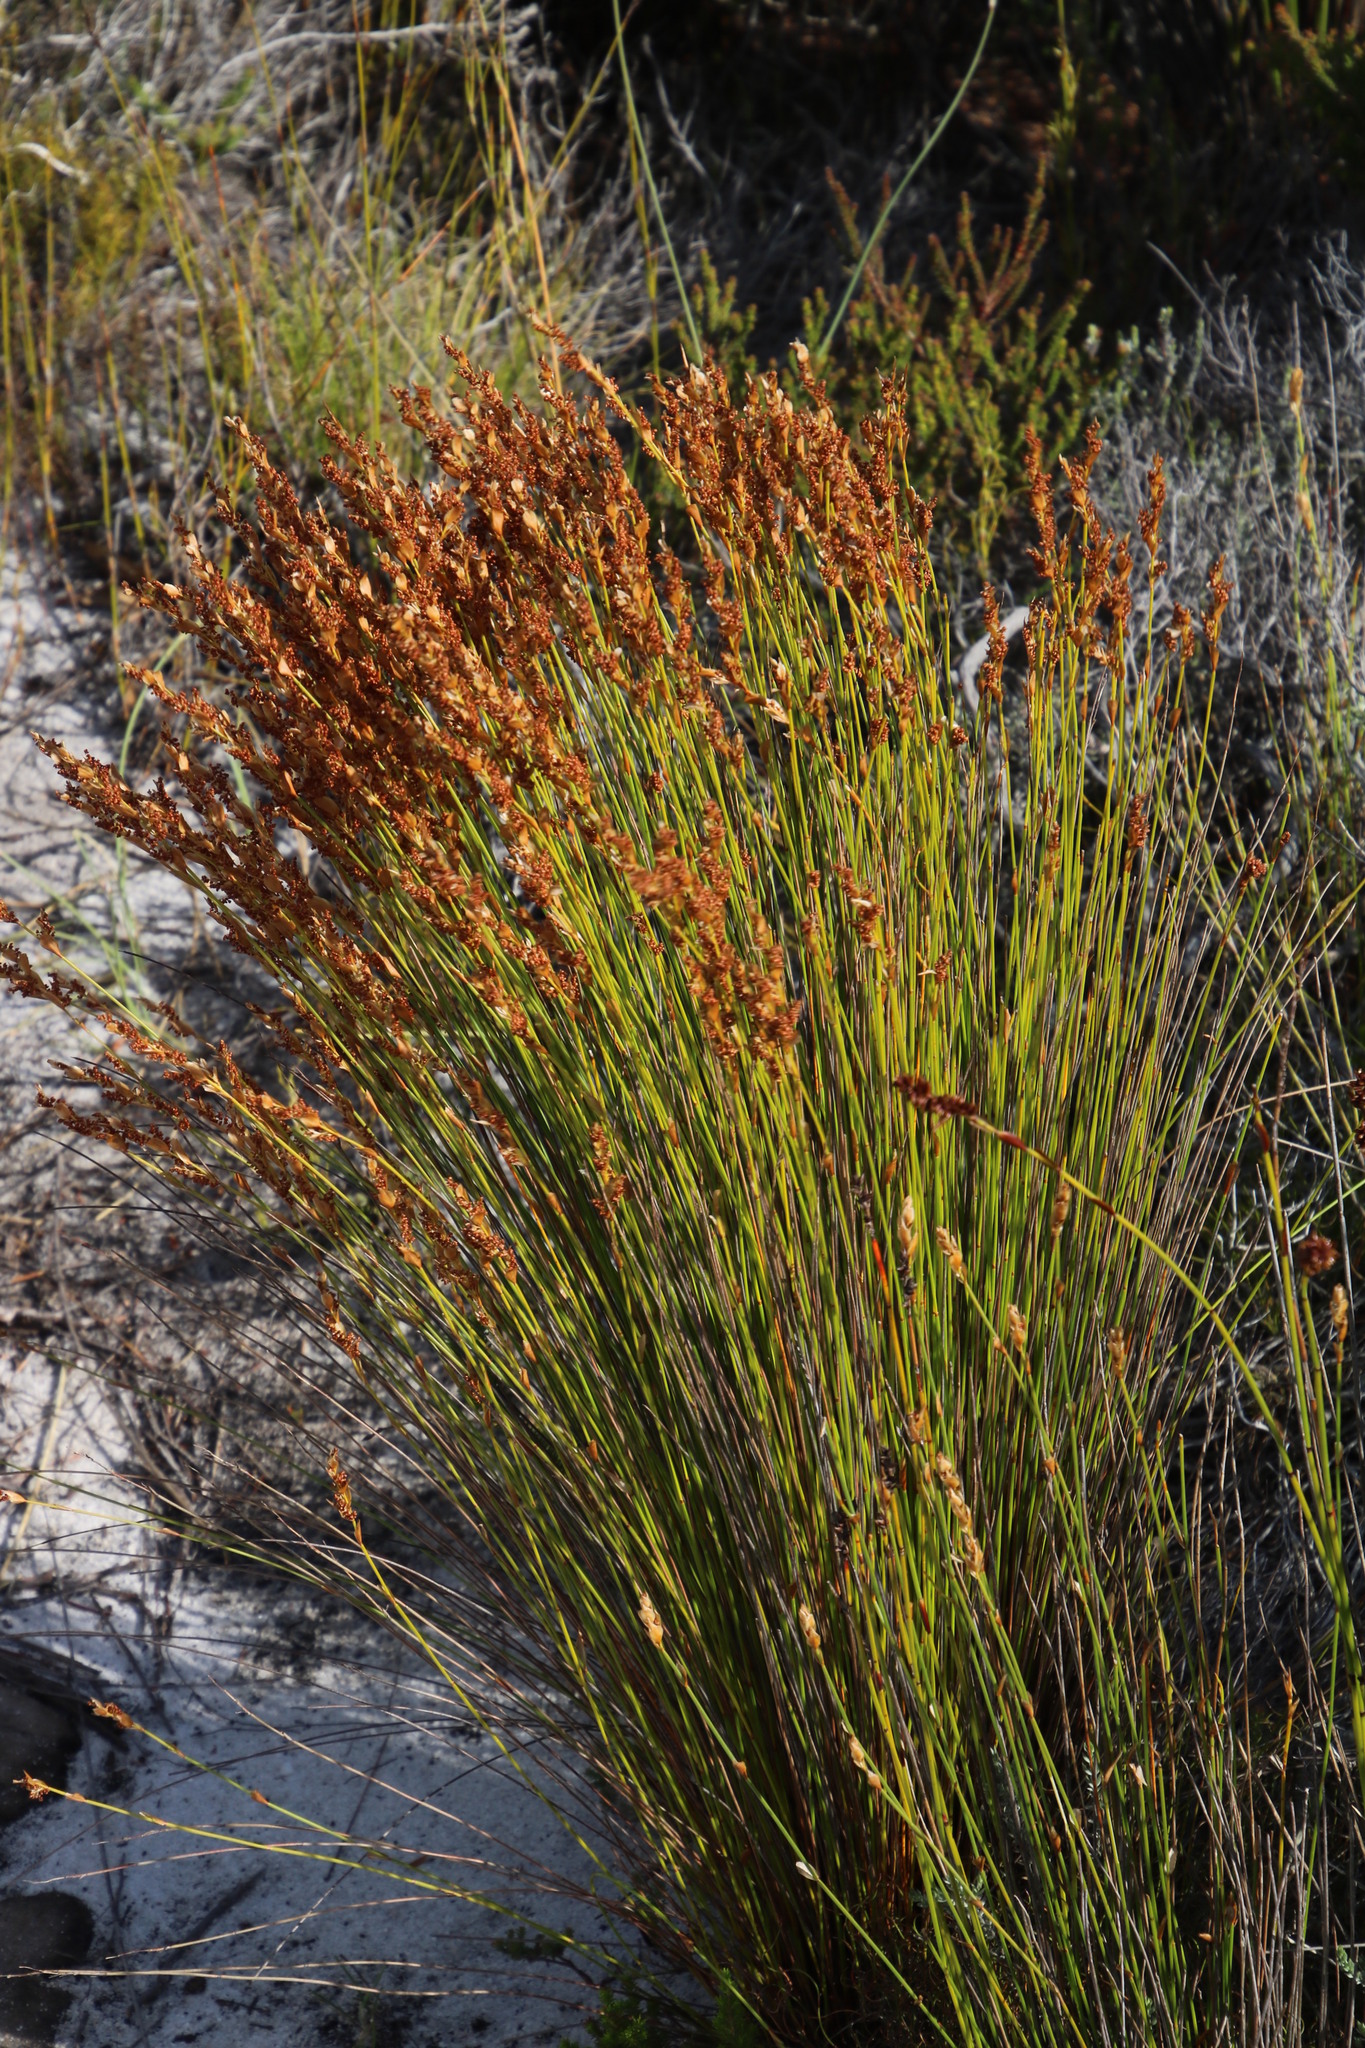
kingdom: Plantae
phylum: Tracheophyta
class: Liliopsida
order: Poales
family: Restionaceae
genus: Elegia
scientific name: Elegia filacea
